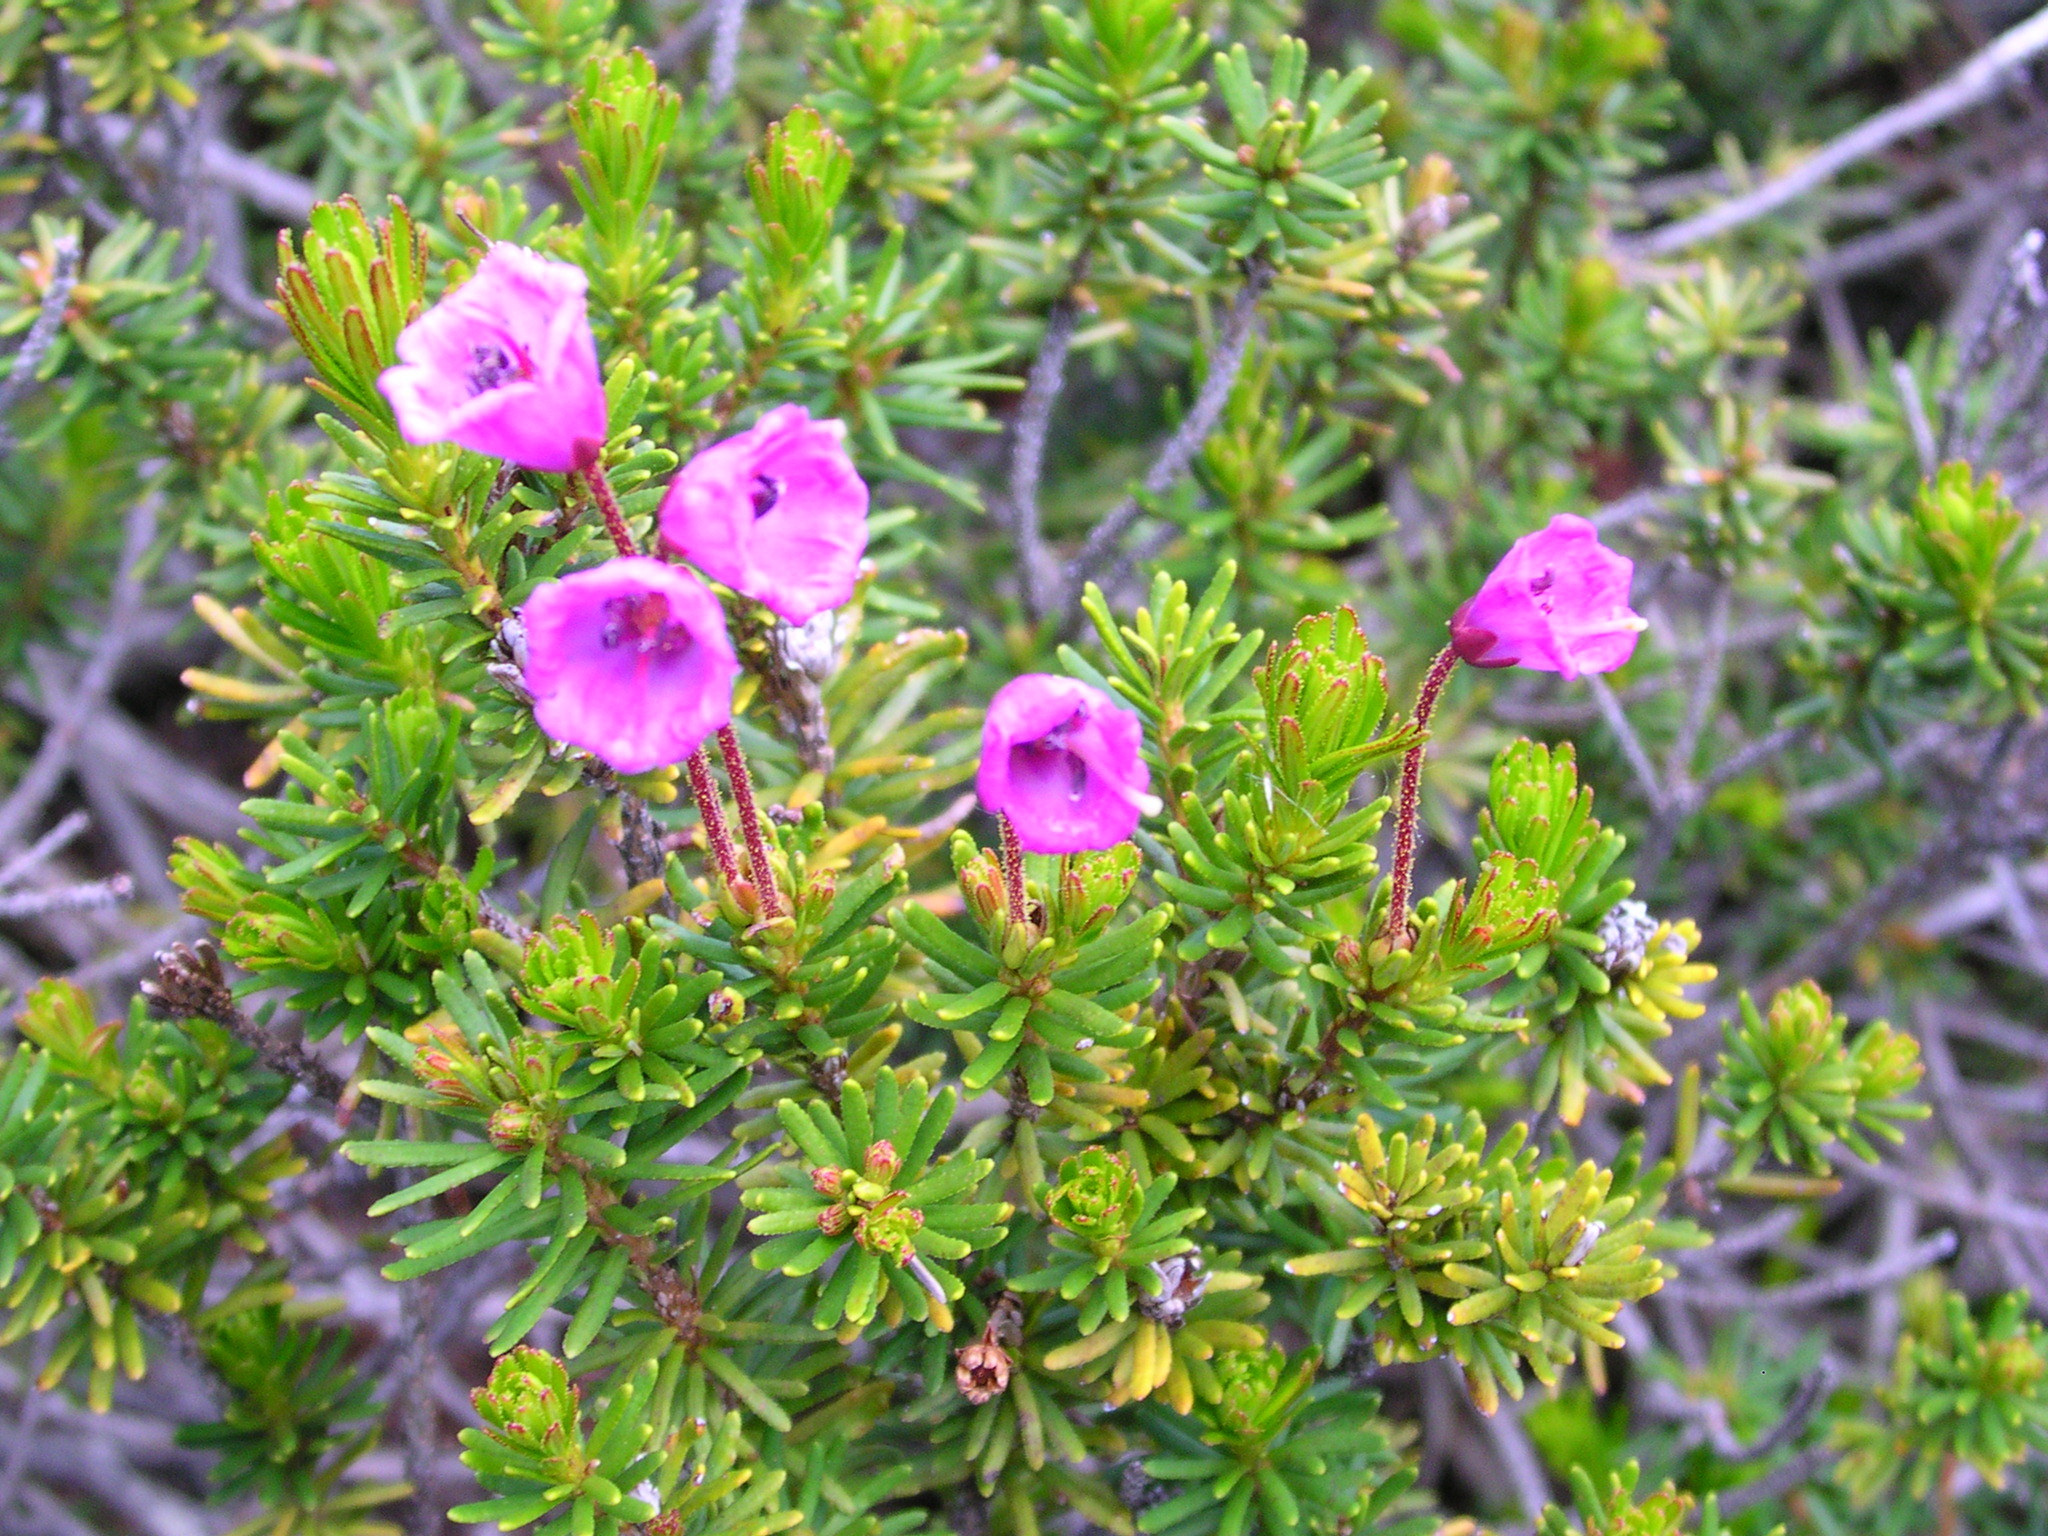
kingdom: Plantae
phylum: Tracheophyta
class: Magnoliopsida
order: Ericales
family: Ericaceae
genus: Phyllodoce
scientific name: Phyllodoce empetriformis
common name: Pink mountain heather
